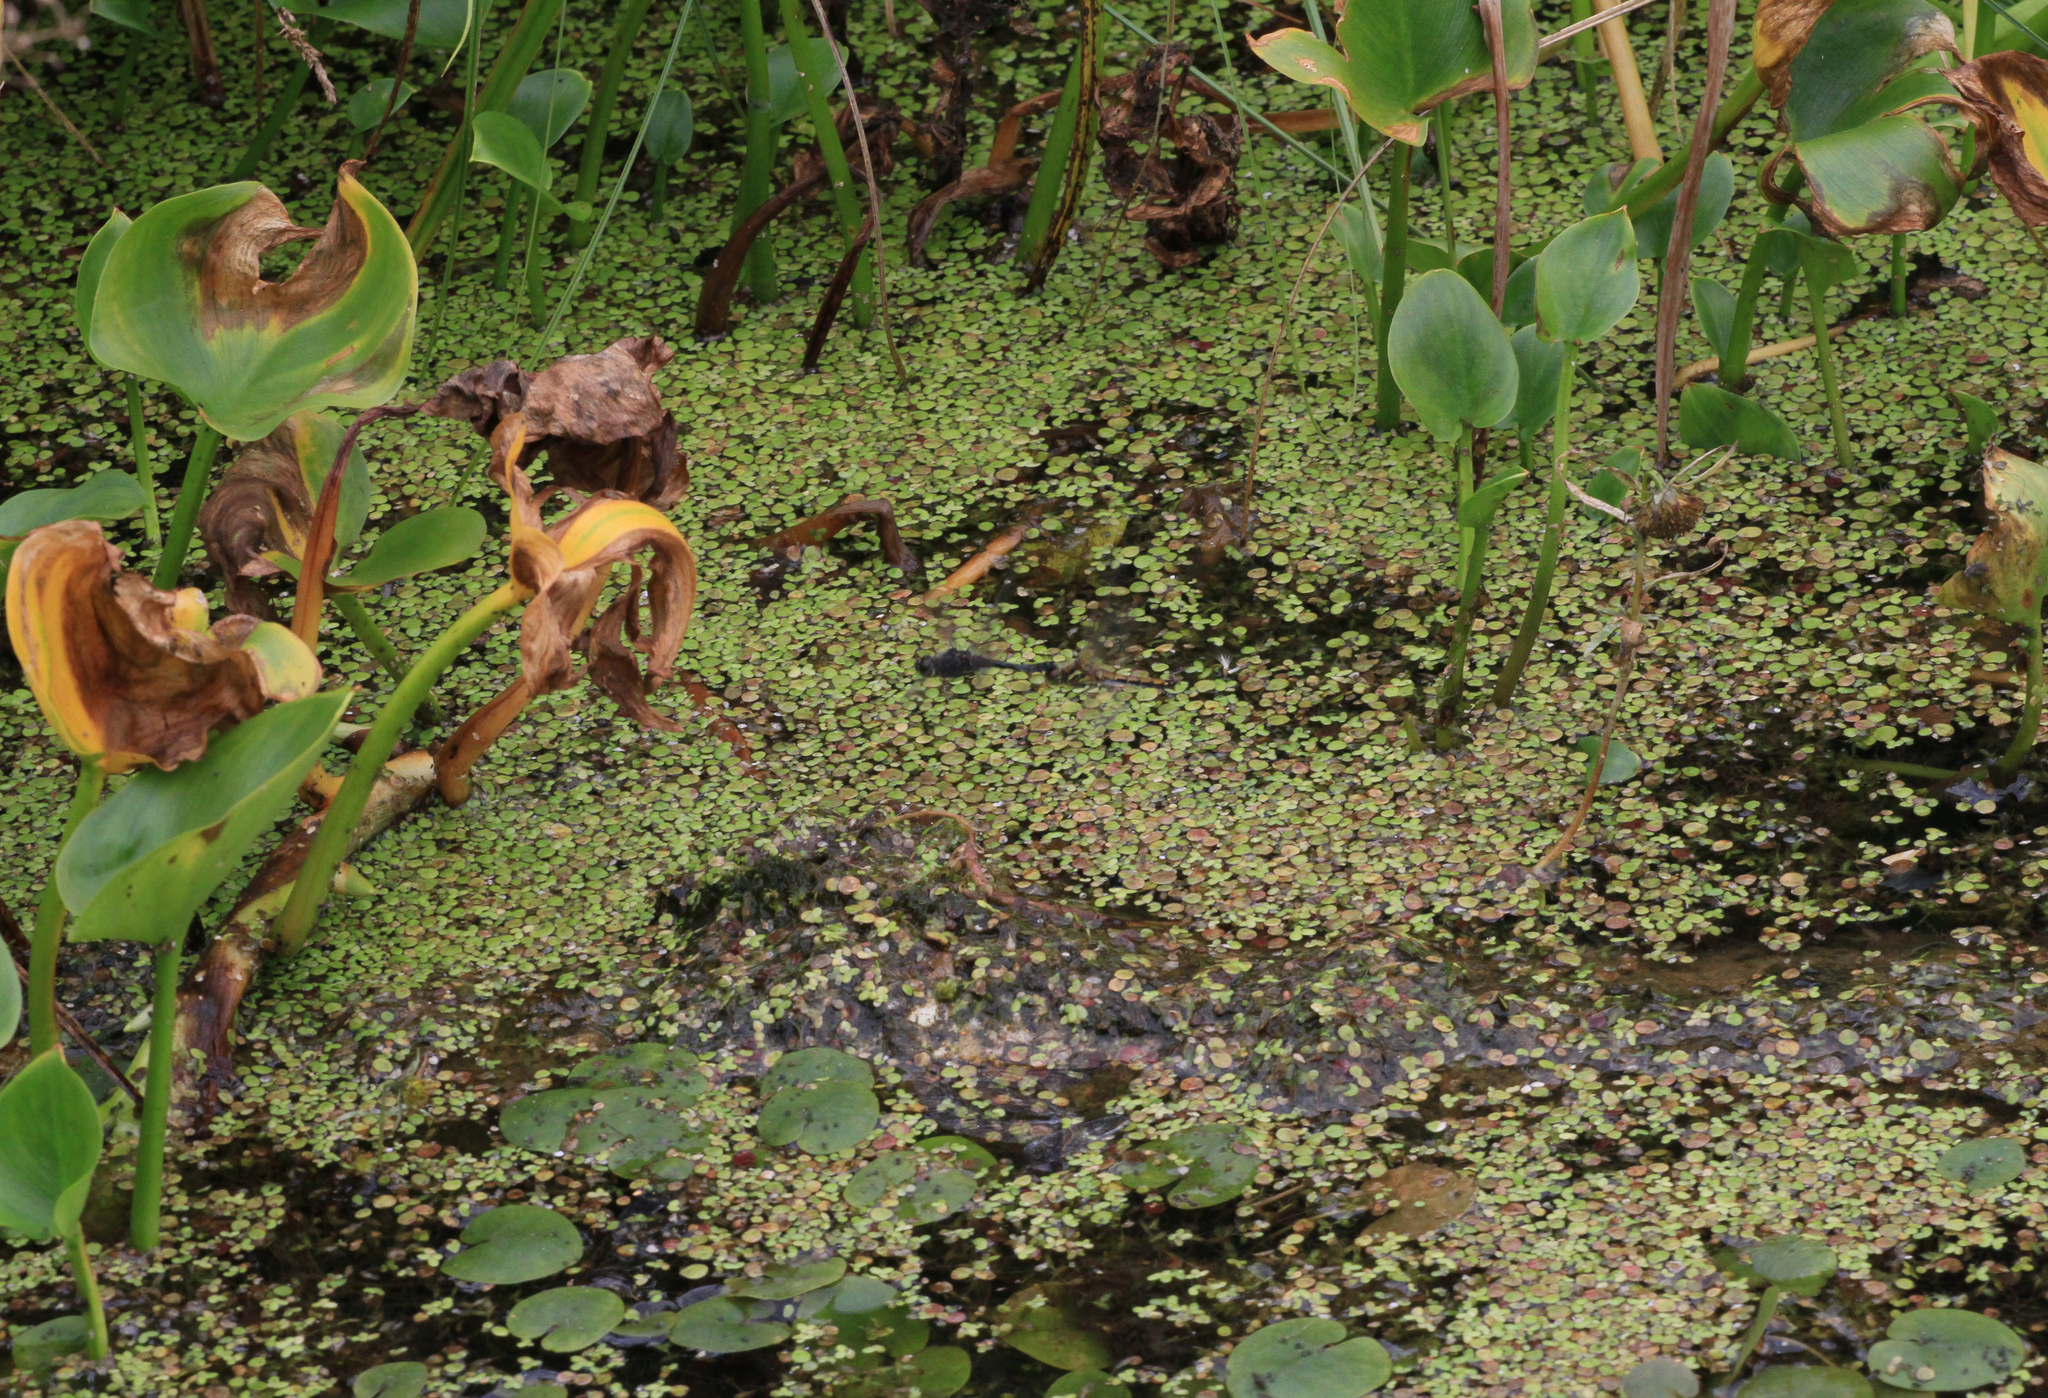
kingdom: Plantae
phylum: Tracheophyta
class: Liliopsida
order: Alismatales
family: Araceae
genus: Calla
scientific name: Calla palustris
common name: Bog arum
